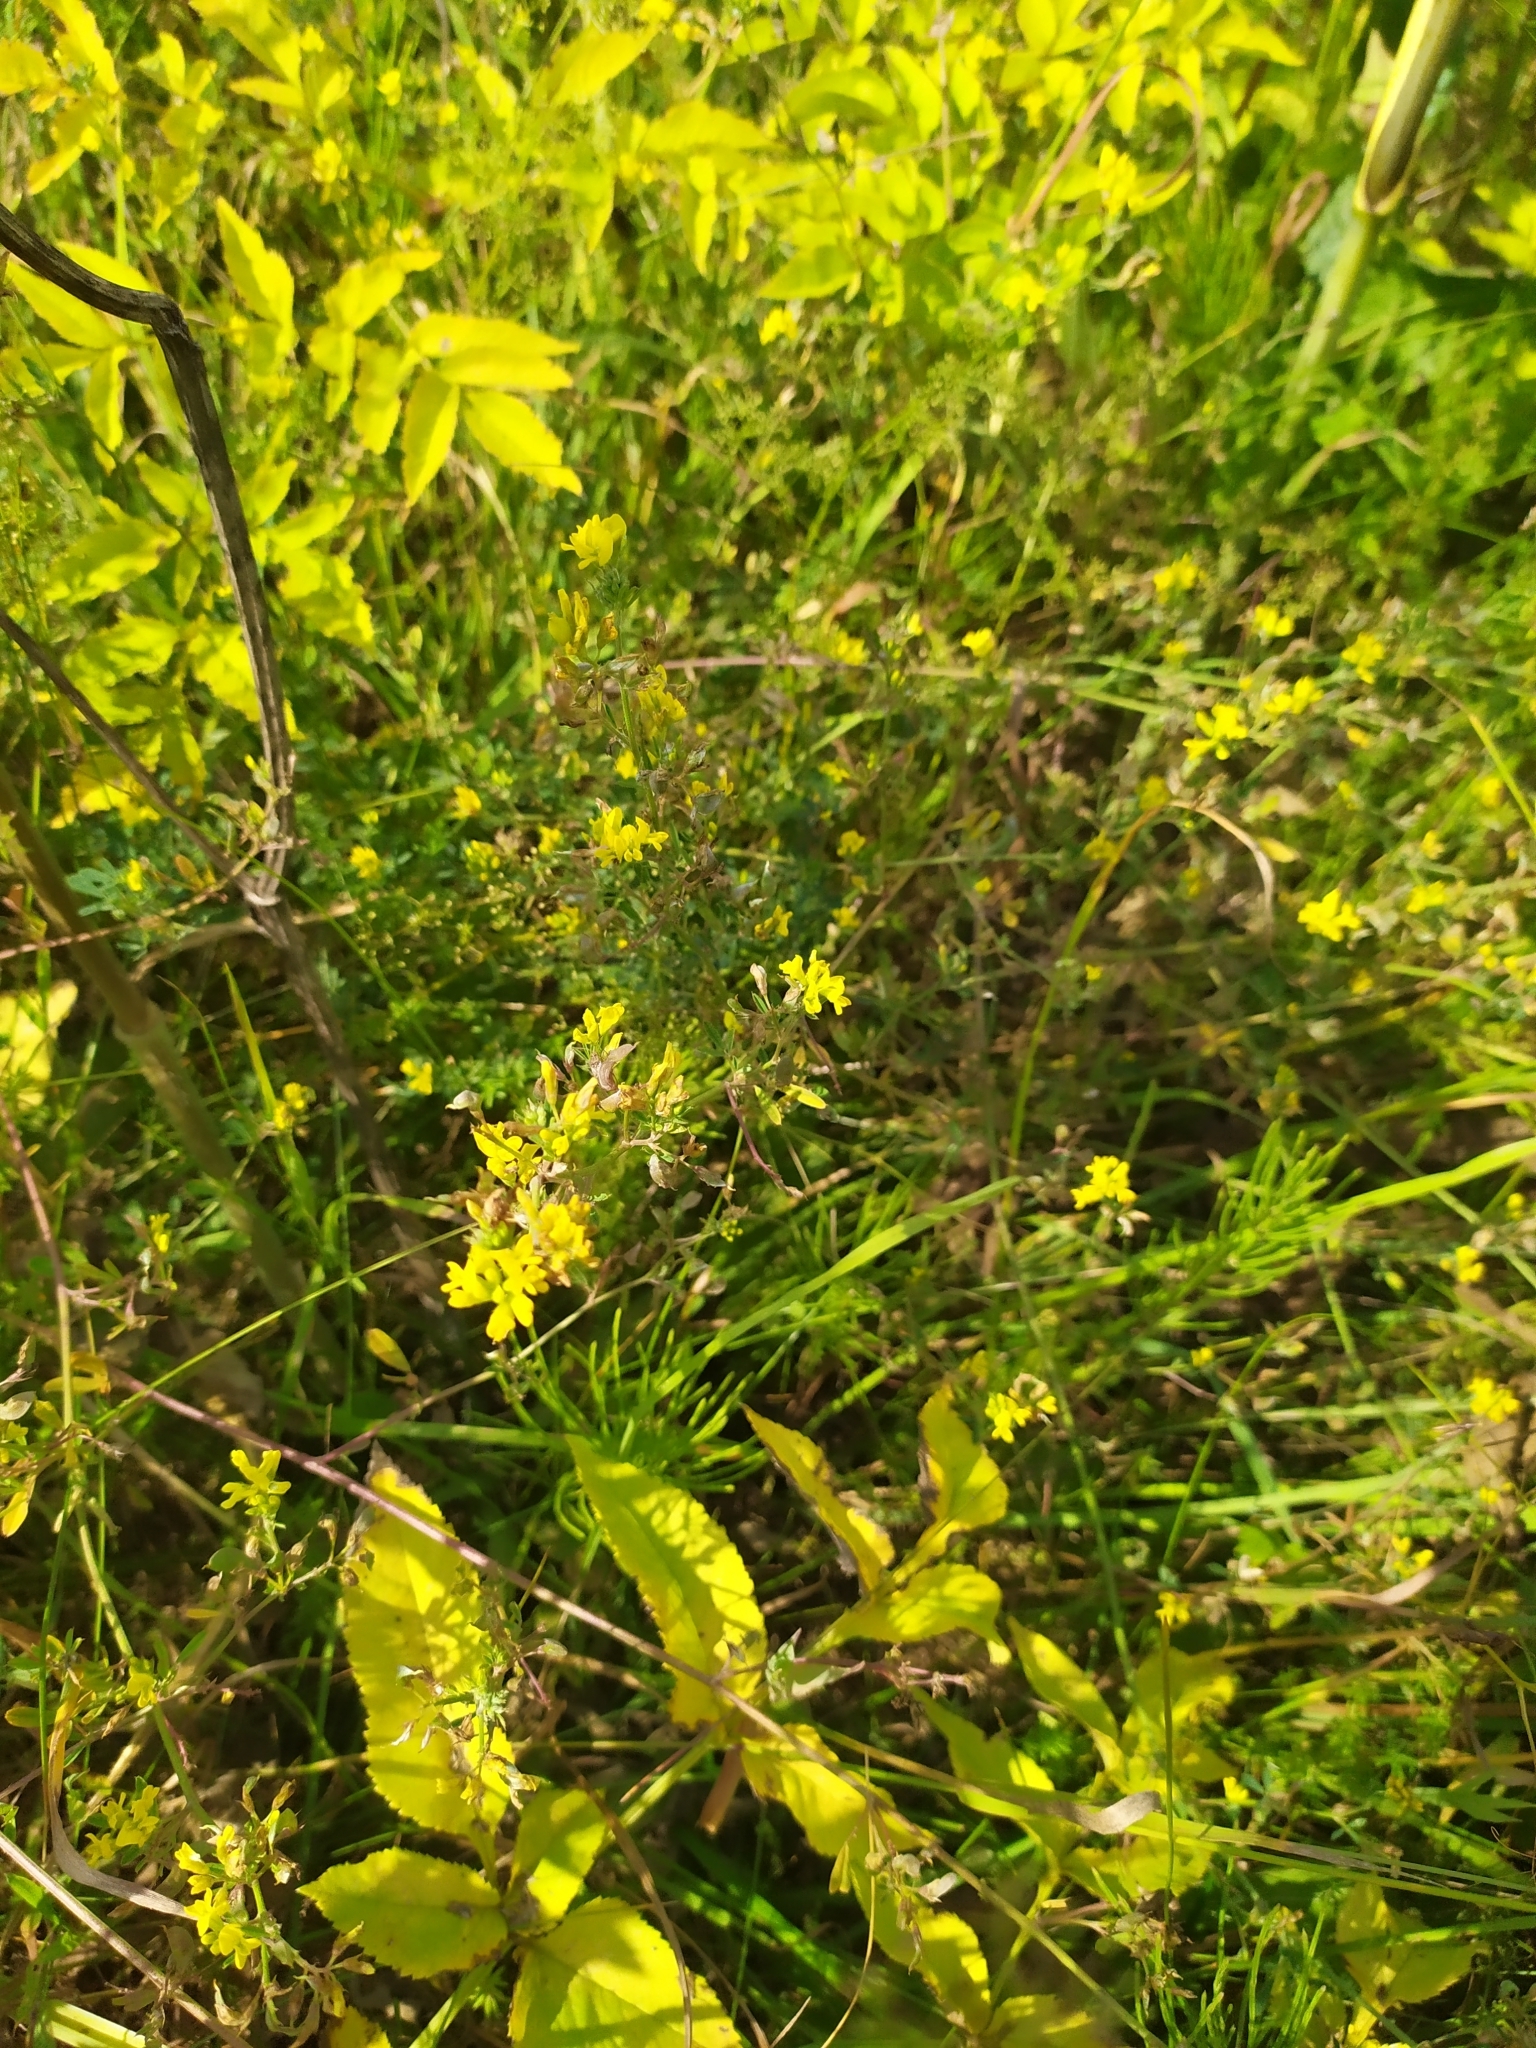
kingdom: Plantae
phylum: Tracheophyta
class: Magnoliopsida
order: Fabales
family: Fabaceae
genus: Medicago
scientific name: Medicago falcata
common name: Sickle medick
